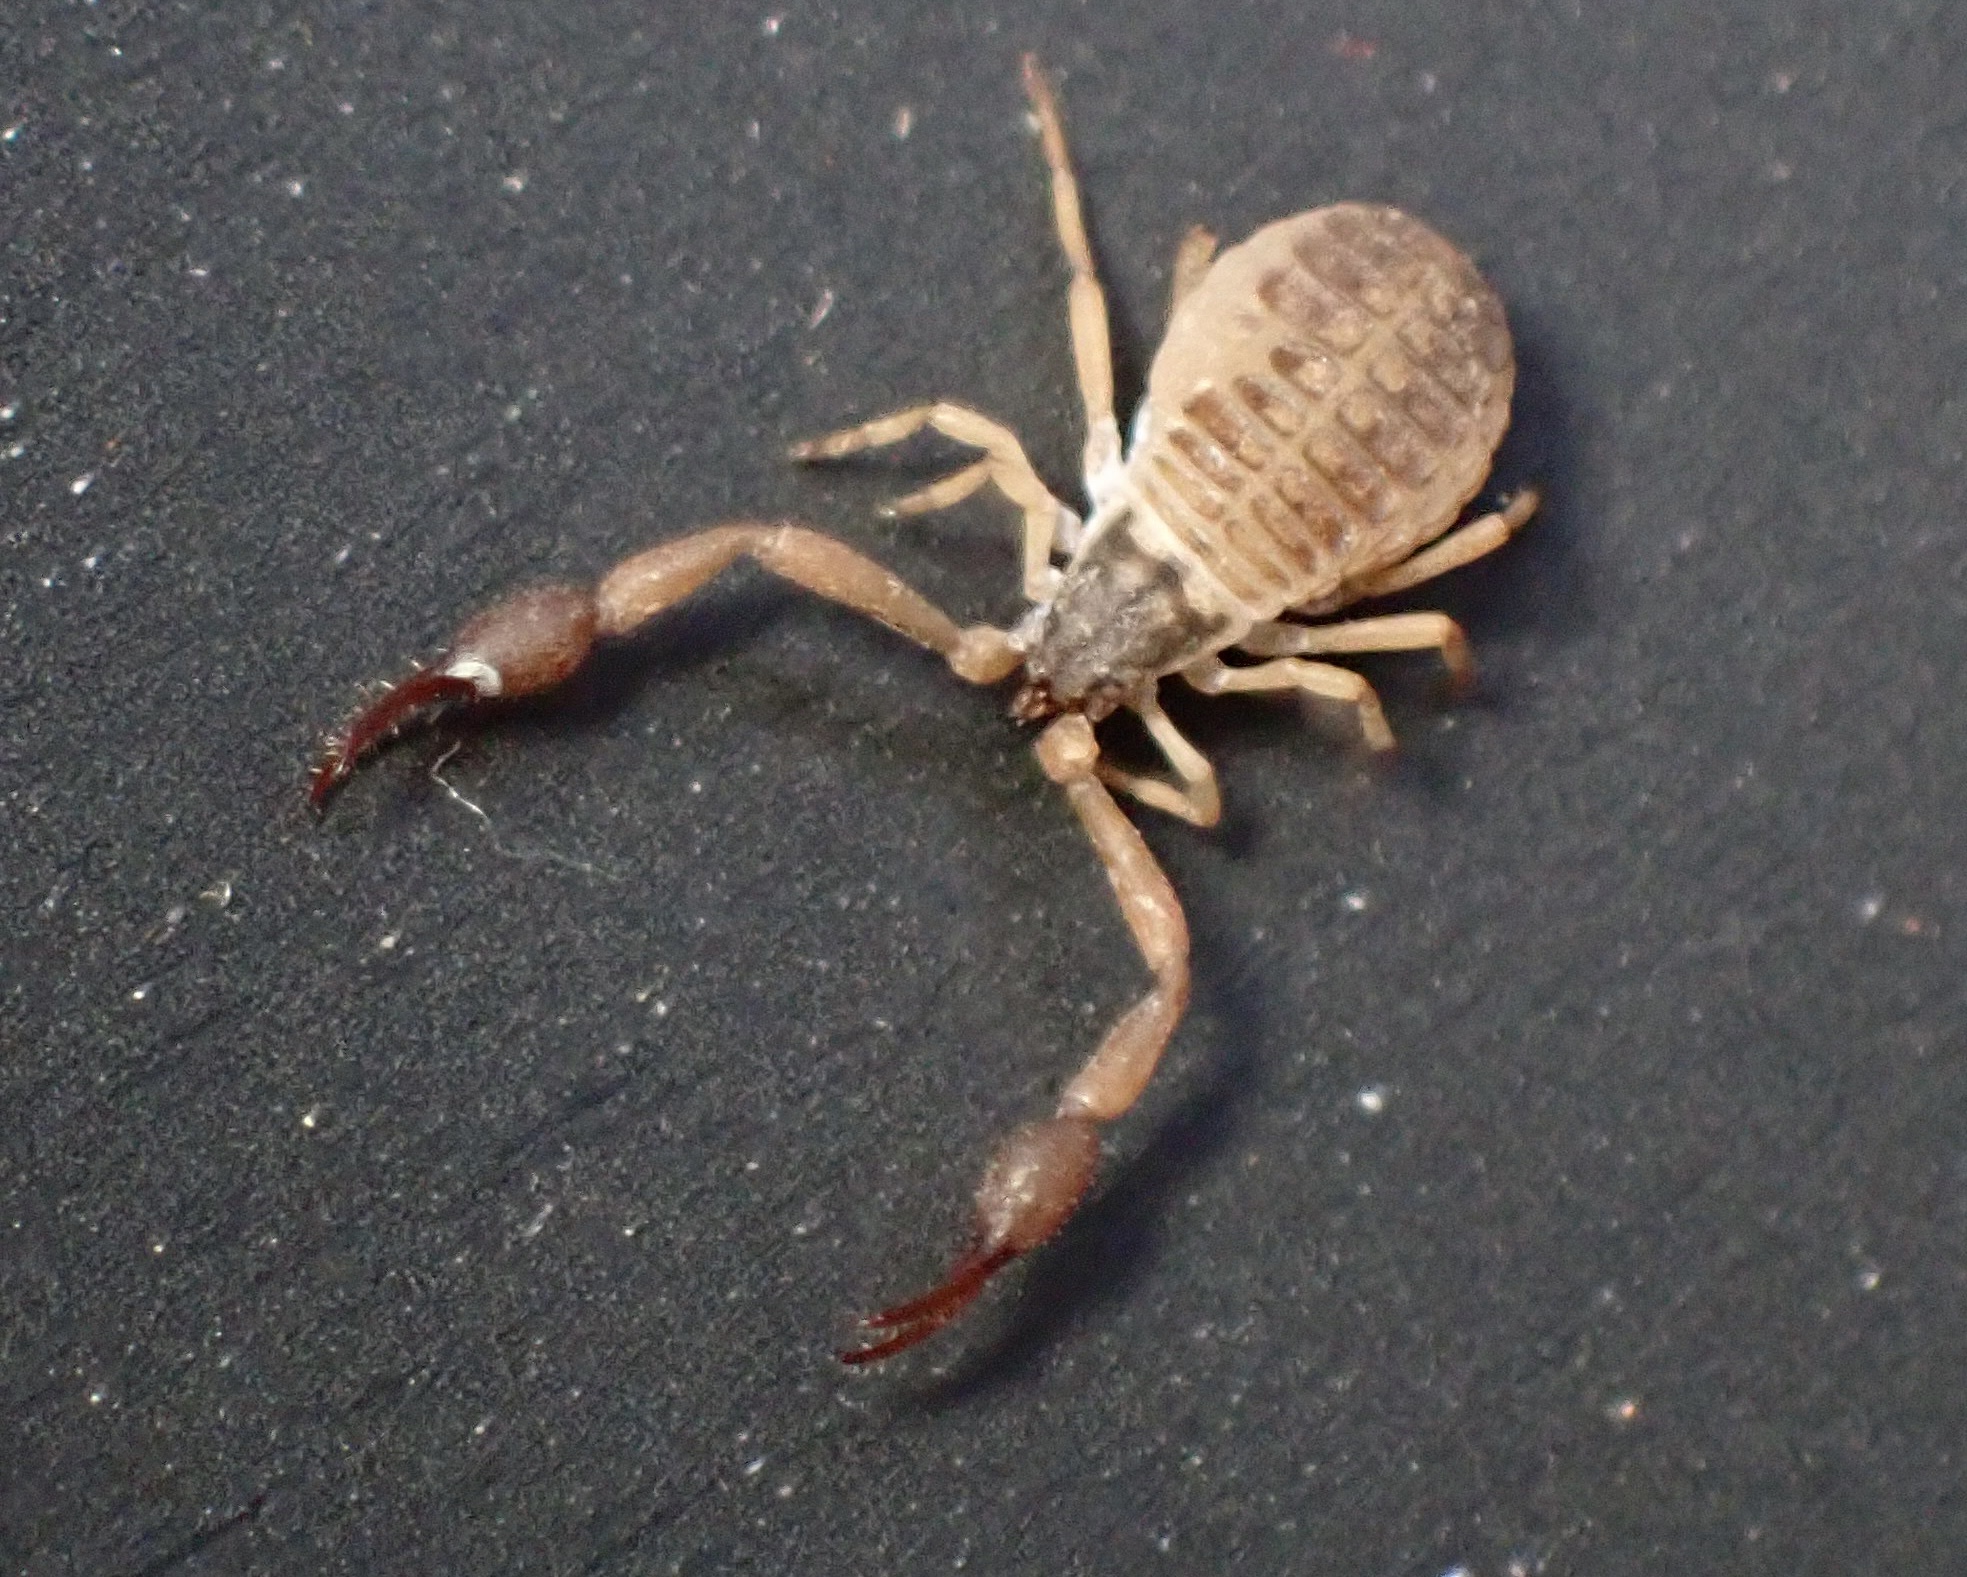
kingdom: Animalia
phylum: Arthropoda
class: Arachnida
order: Pseudoscorpiones
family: Garypidae
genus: Anchigarypus
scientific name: Anchigarypus californicus
